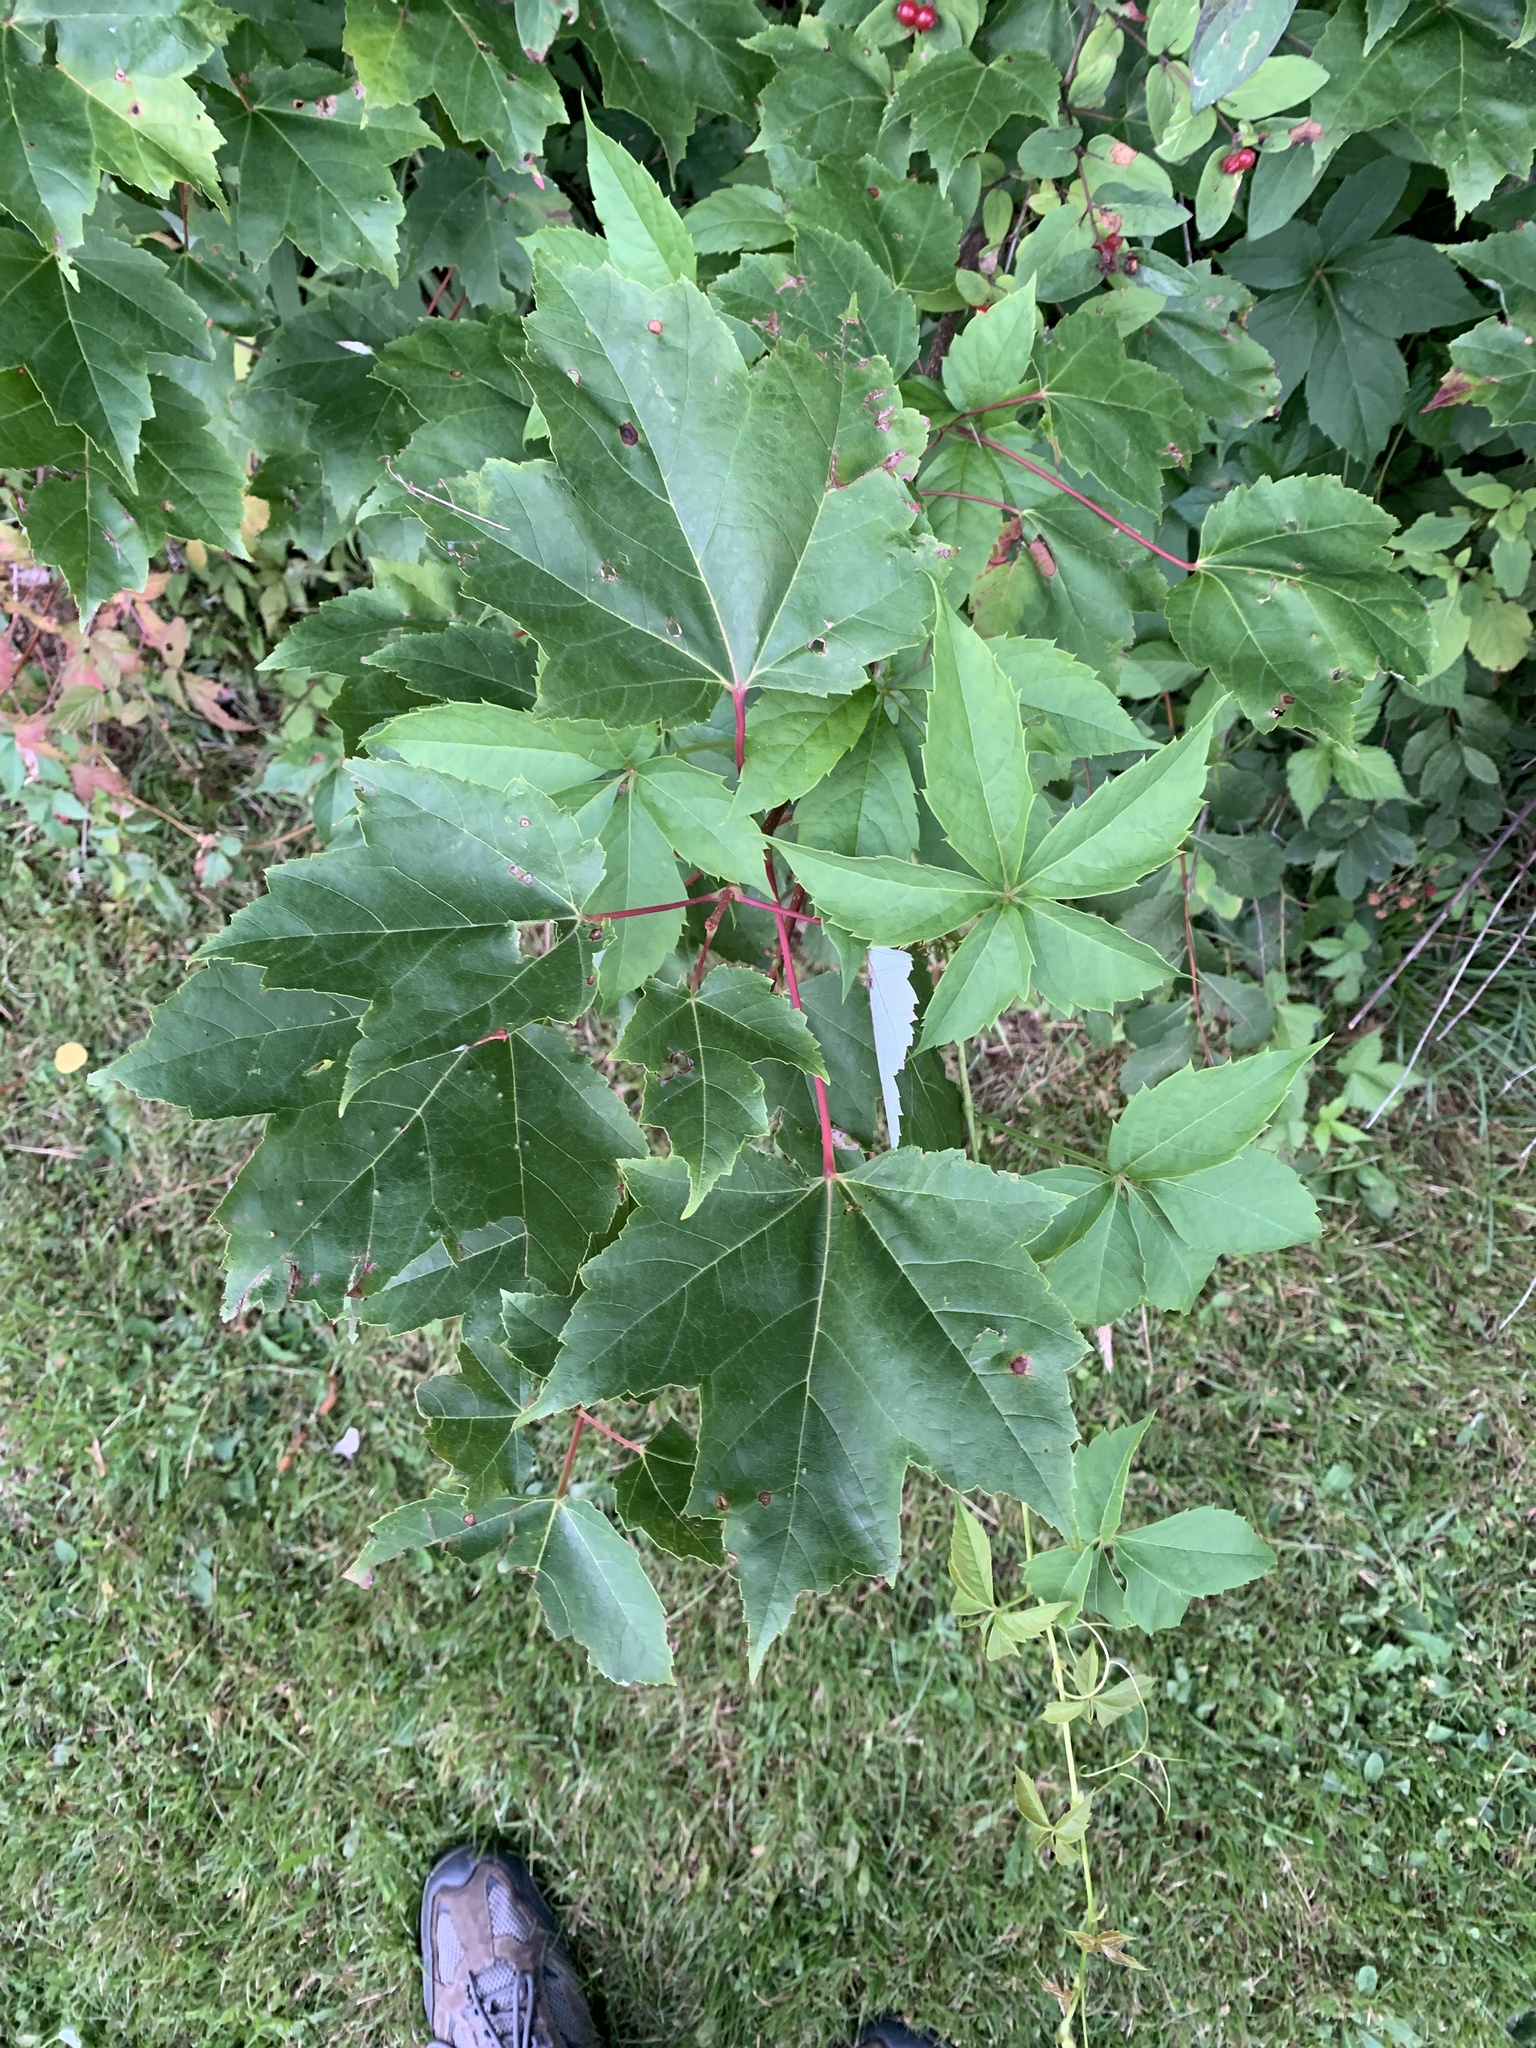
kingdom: Plantae
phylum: Tracheophyta
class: Magnoliopsida
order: Sapindales
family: Sapindaceae
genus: Acer
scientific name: Acer rubrum
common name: Red maple
